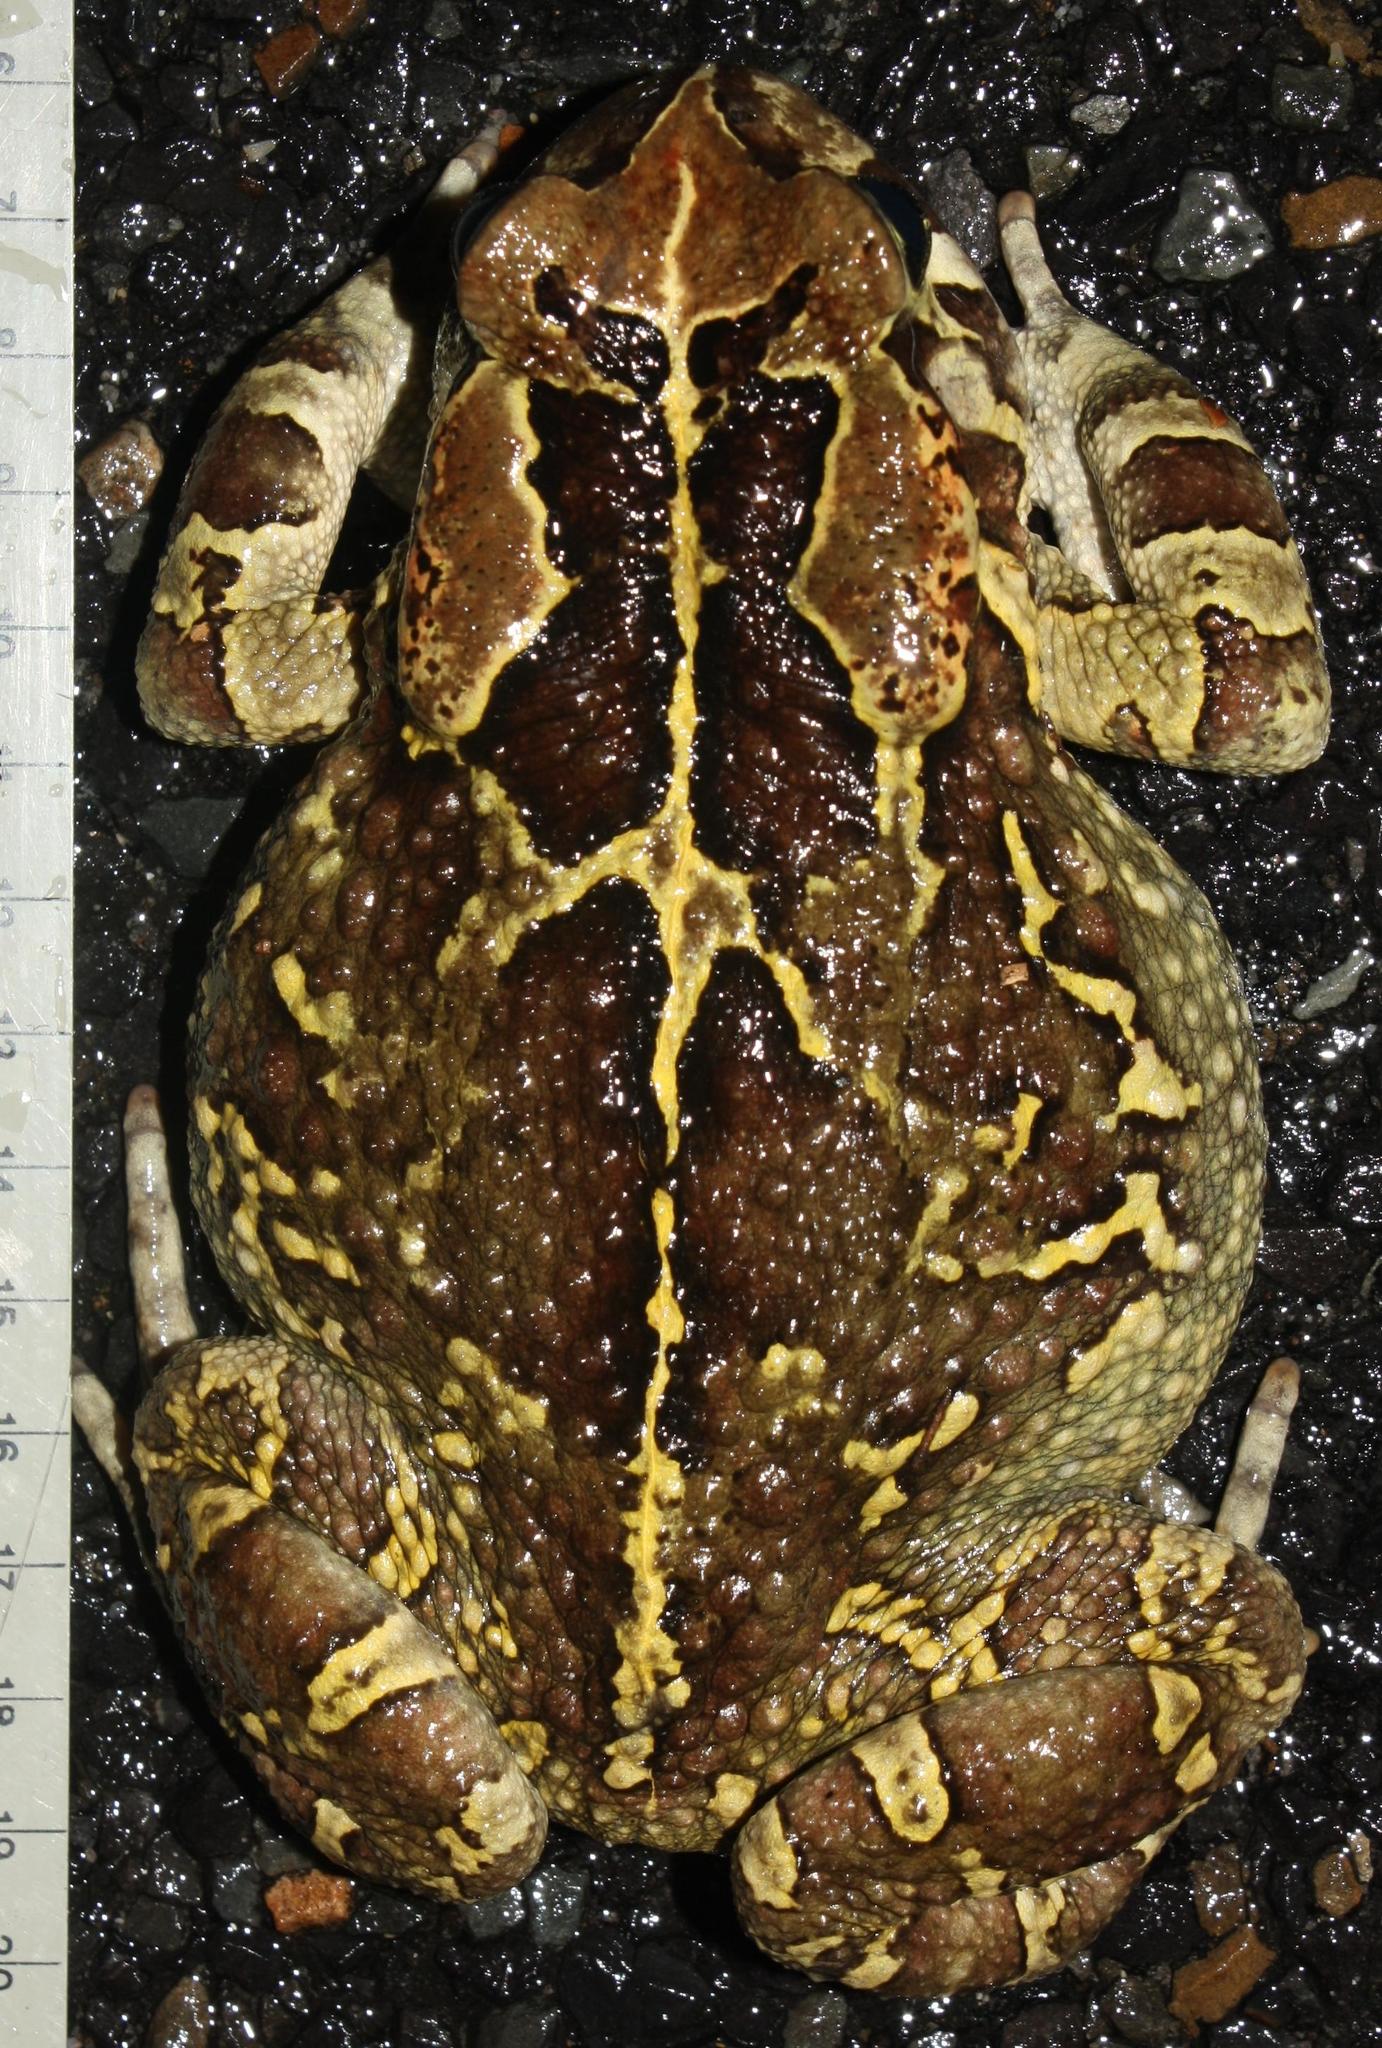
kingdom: Animalia
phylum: Chordata
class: Amphibia
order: Anura
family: Bufonidae
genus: Sclerophrys
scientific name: Sclerophrys pantherina
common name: Panther toad
